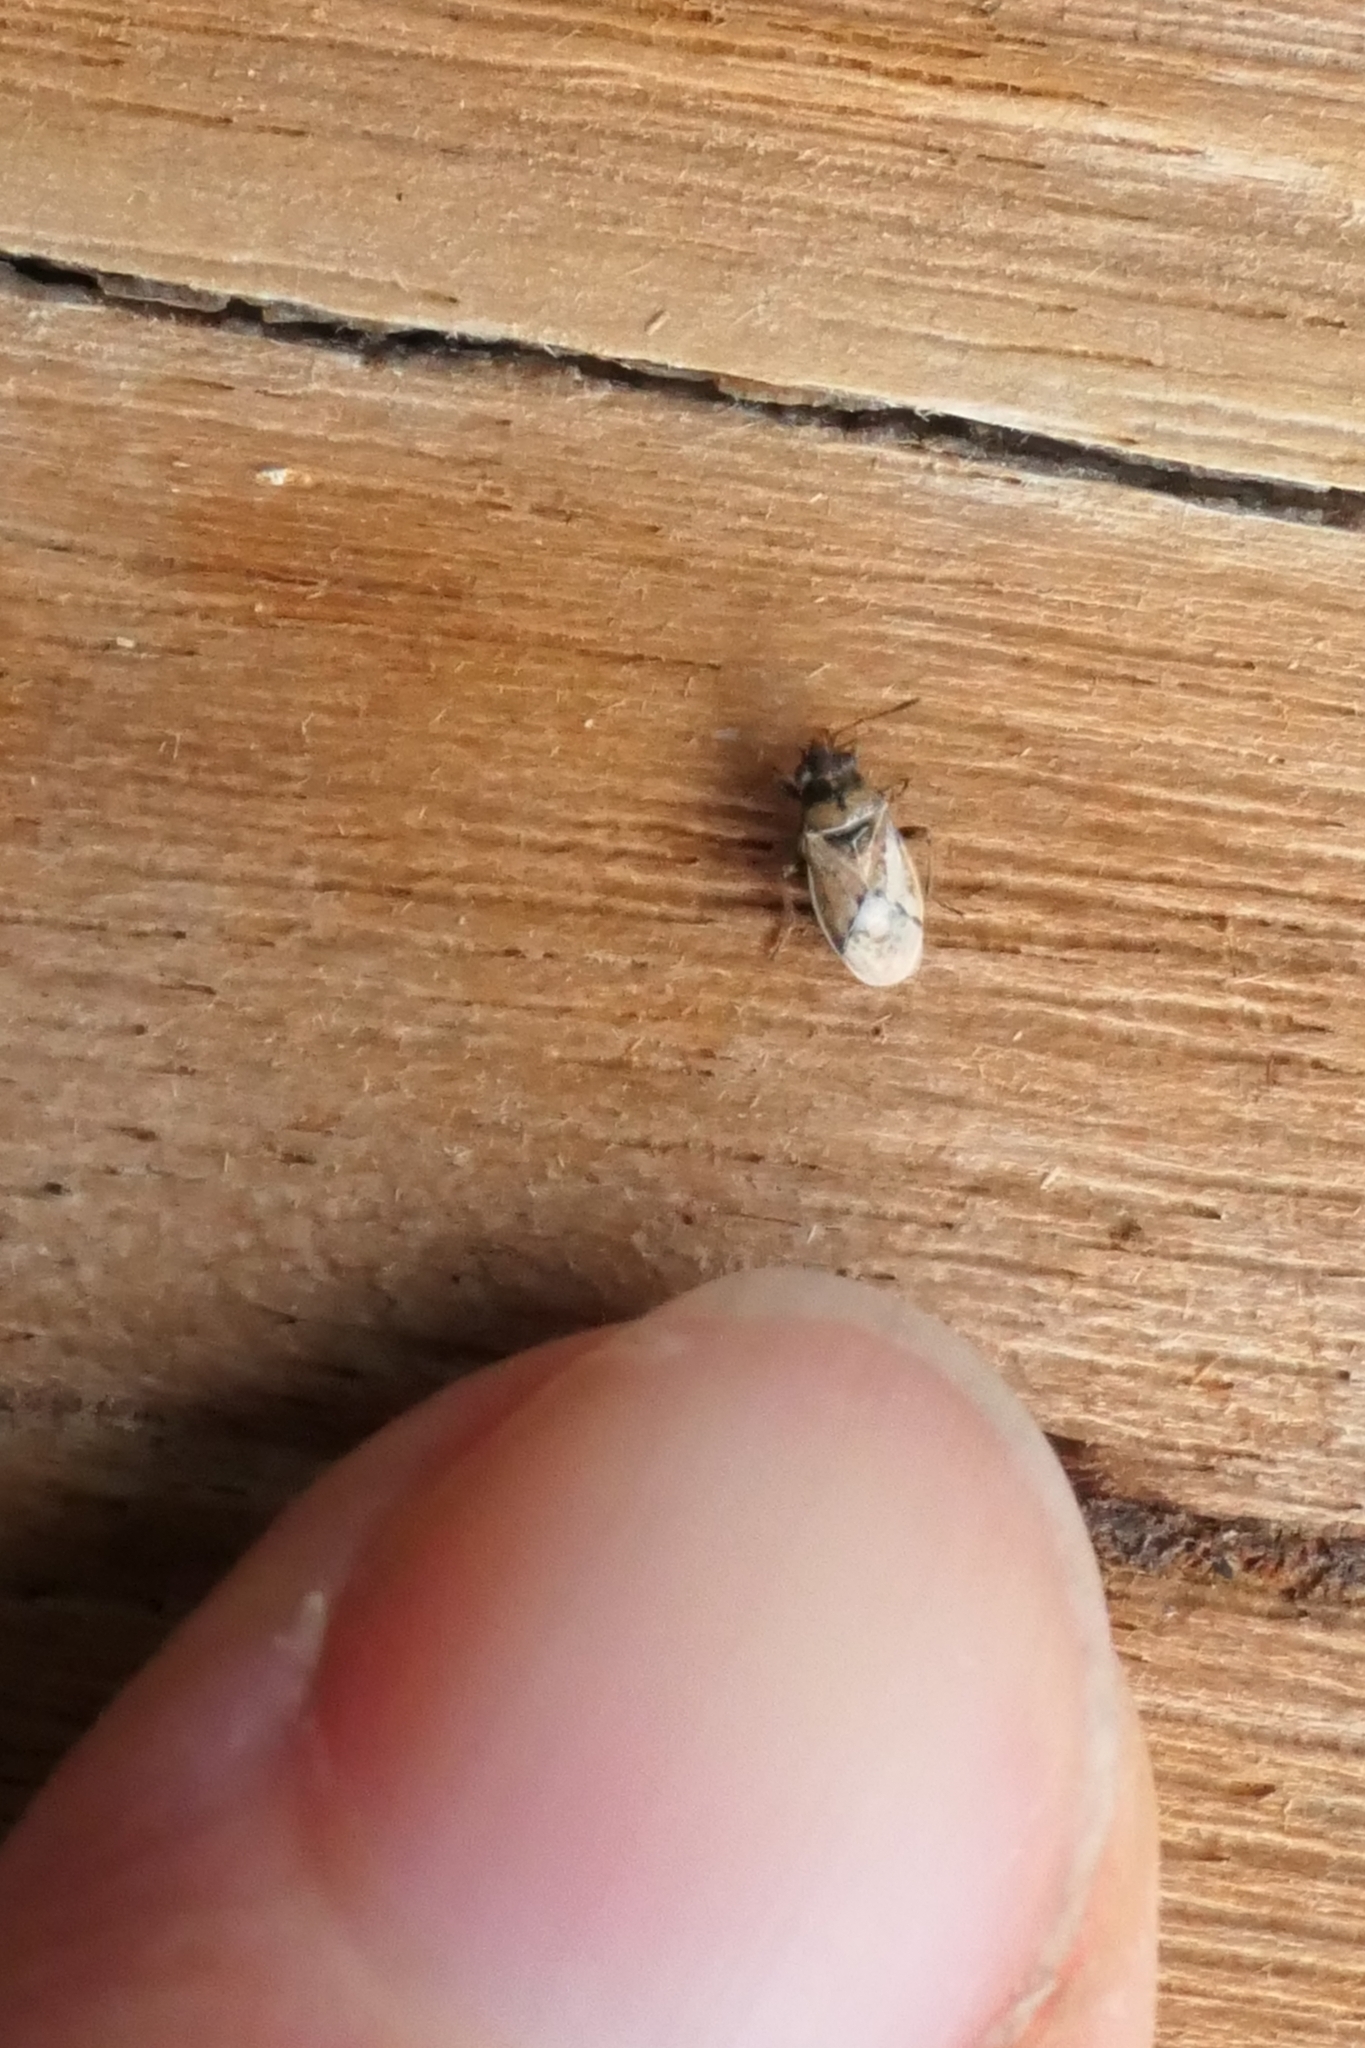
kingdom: Animalia
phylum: Arthropoda
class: Insecta
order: Hemiptera
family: Lygaeidae
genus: Nysius
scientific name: Nysius huttoni
